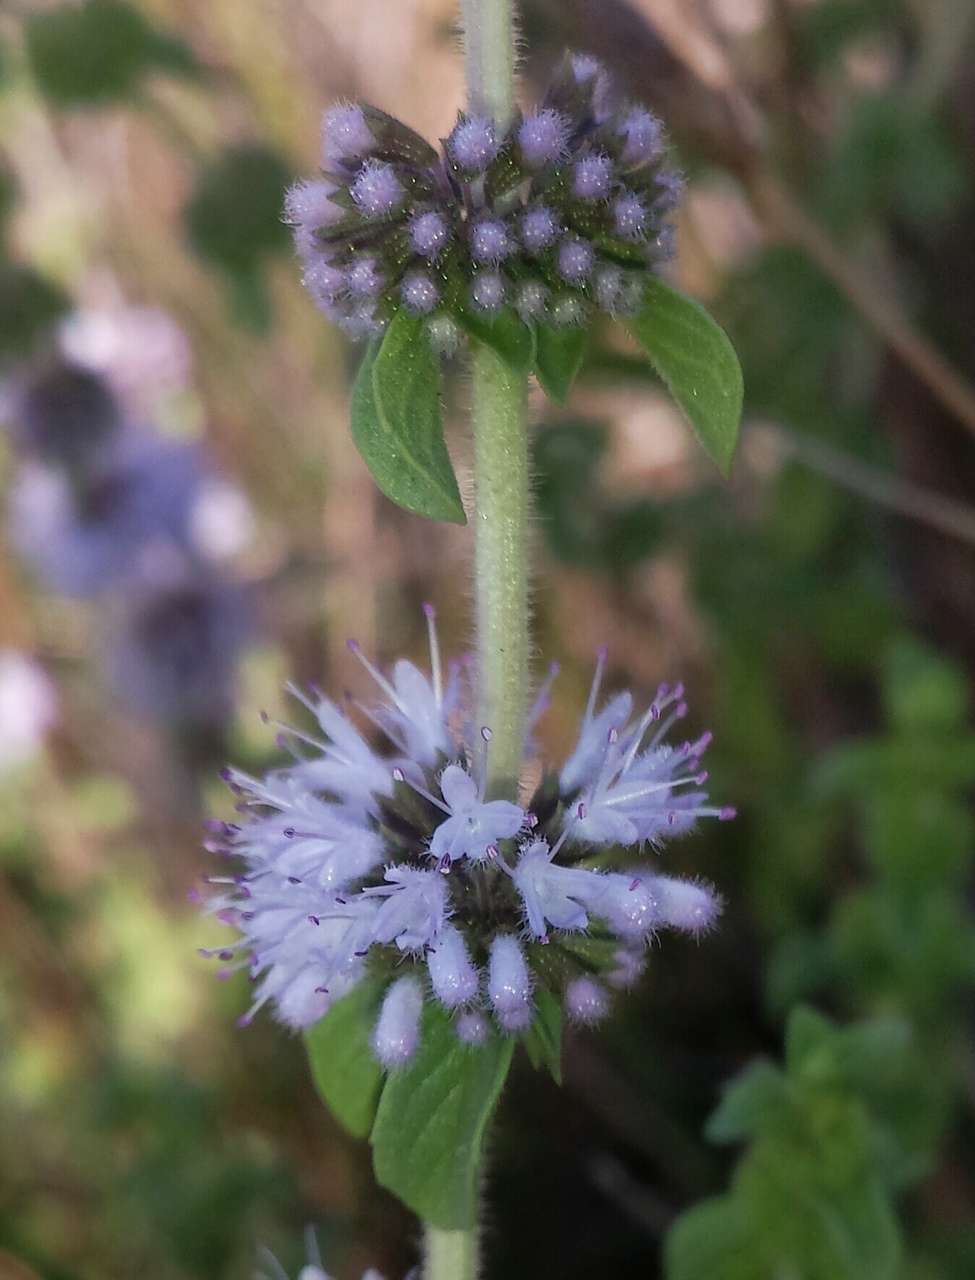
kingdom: Plantae
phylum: Tracheophyta
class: Magnoliopsida
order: Lamiales
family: Lamiaceae
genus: Mentha
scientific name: Mentha pulegium
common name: Pennyroyal
